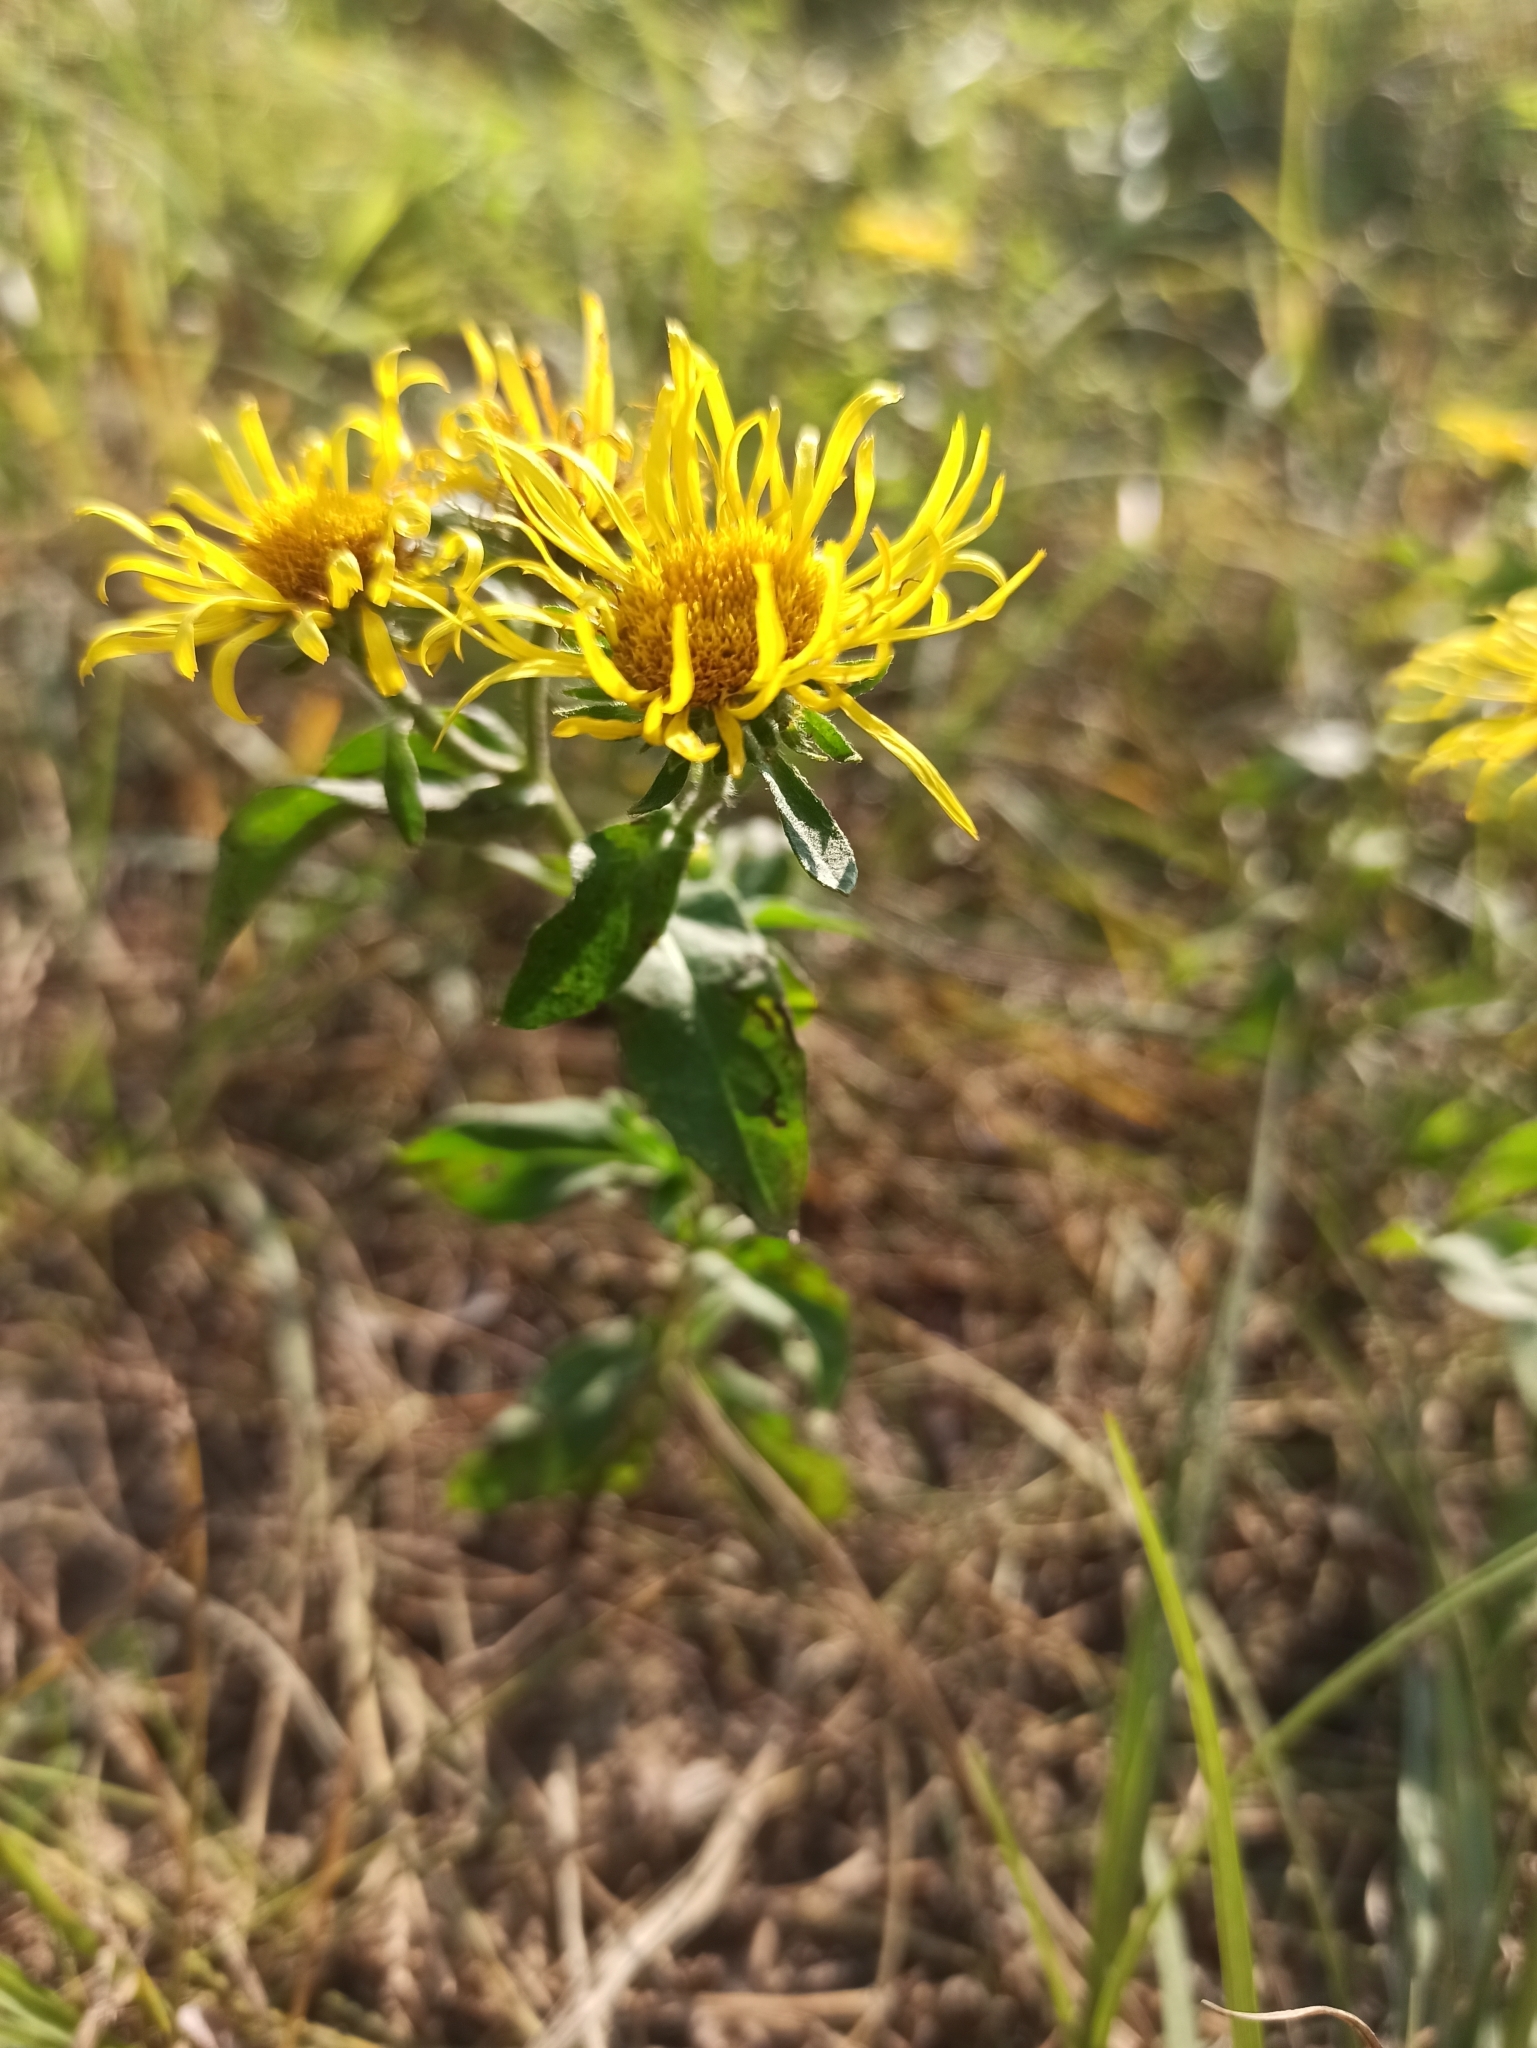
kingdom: Plantae
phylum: Tracheophyta
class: Magnoliopsida
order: Asterales
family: Asteraceae
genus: Pentanema
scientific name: Pentanema britannicum
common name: British elecampane
